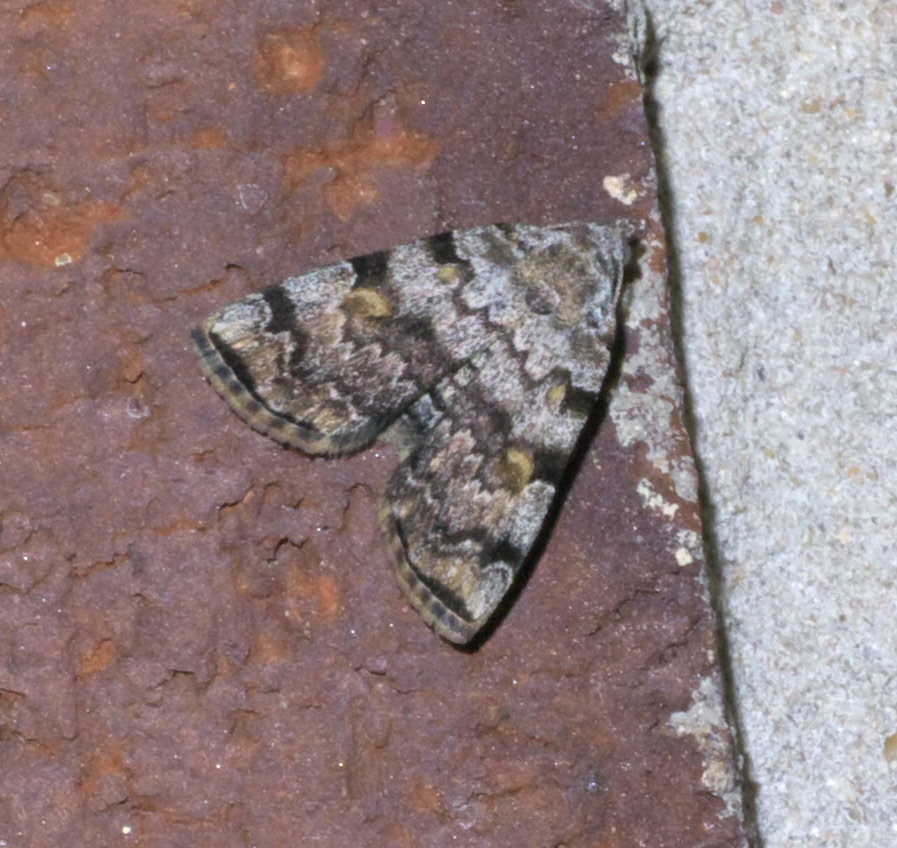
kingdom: Animalia
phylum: Arthropoda
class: Insecta
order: Lepidoptera
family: Erebidae
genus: Idia
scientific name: Idia americalis
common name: American idia moth
